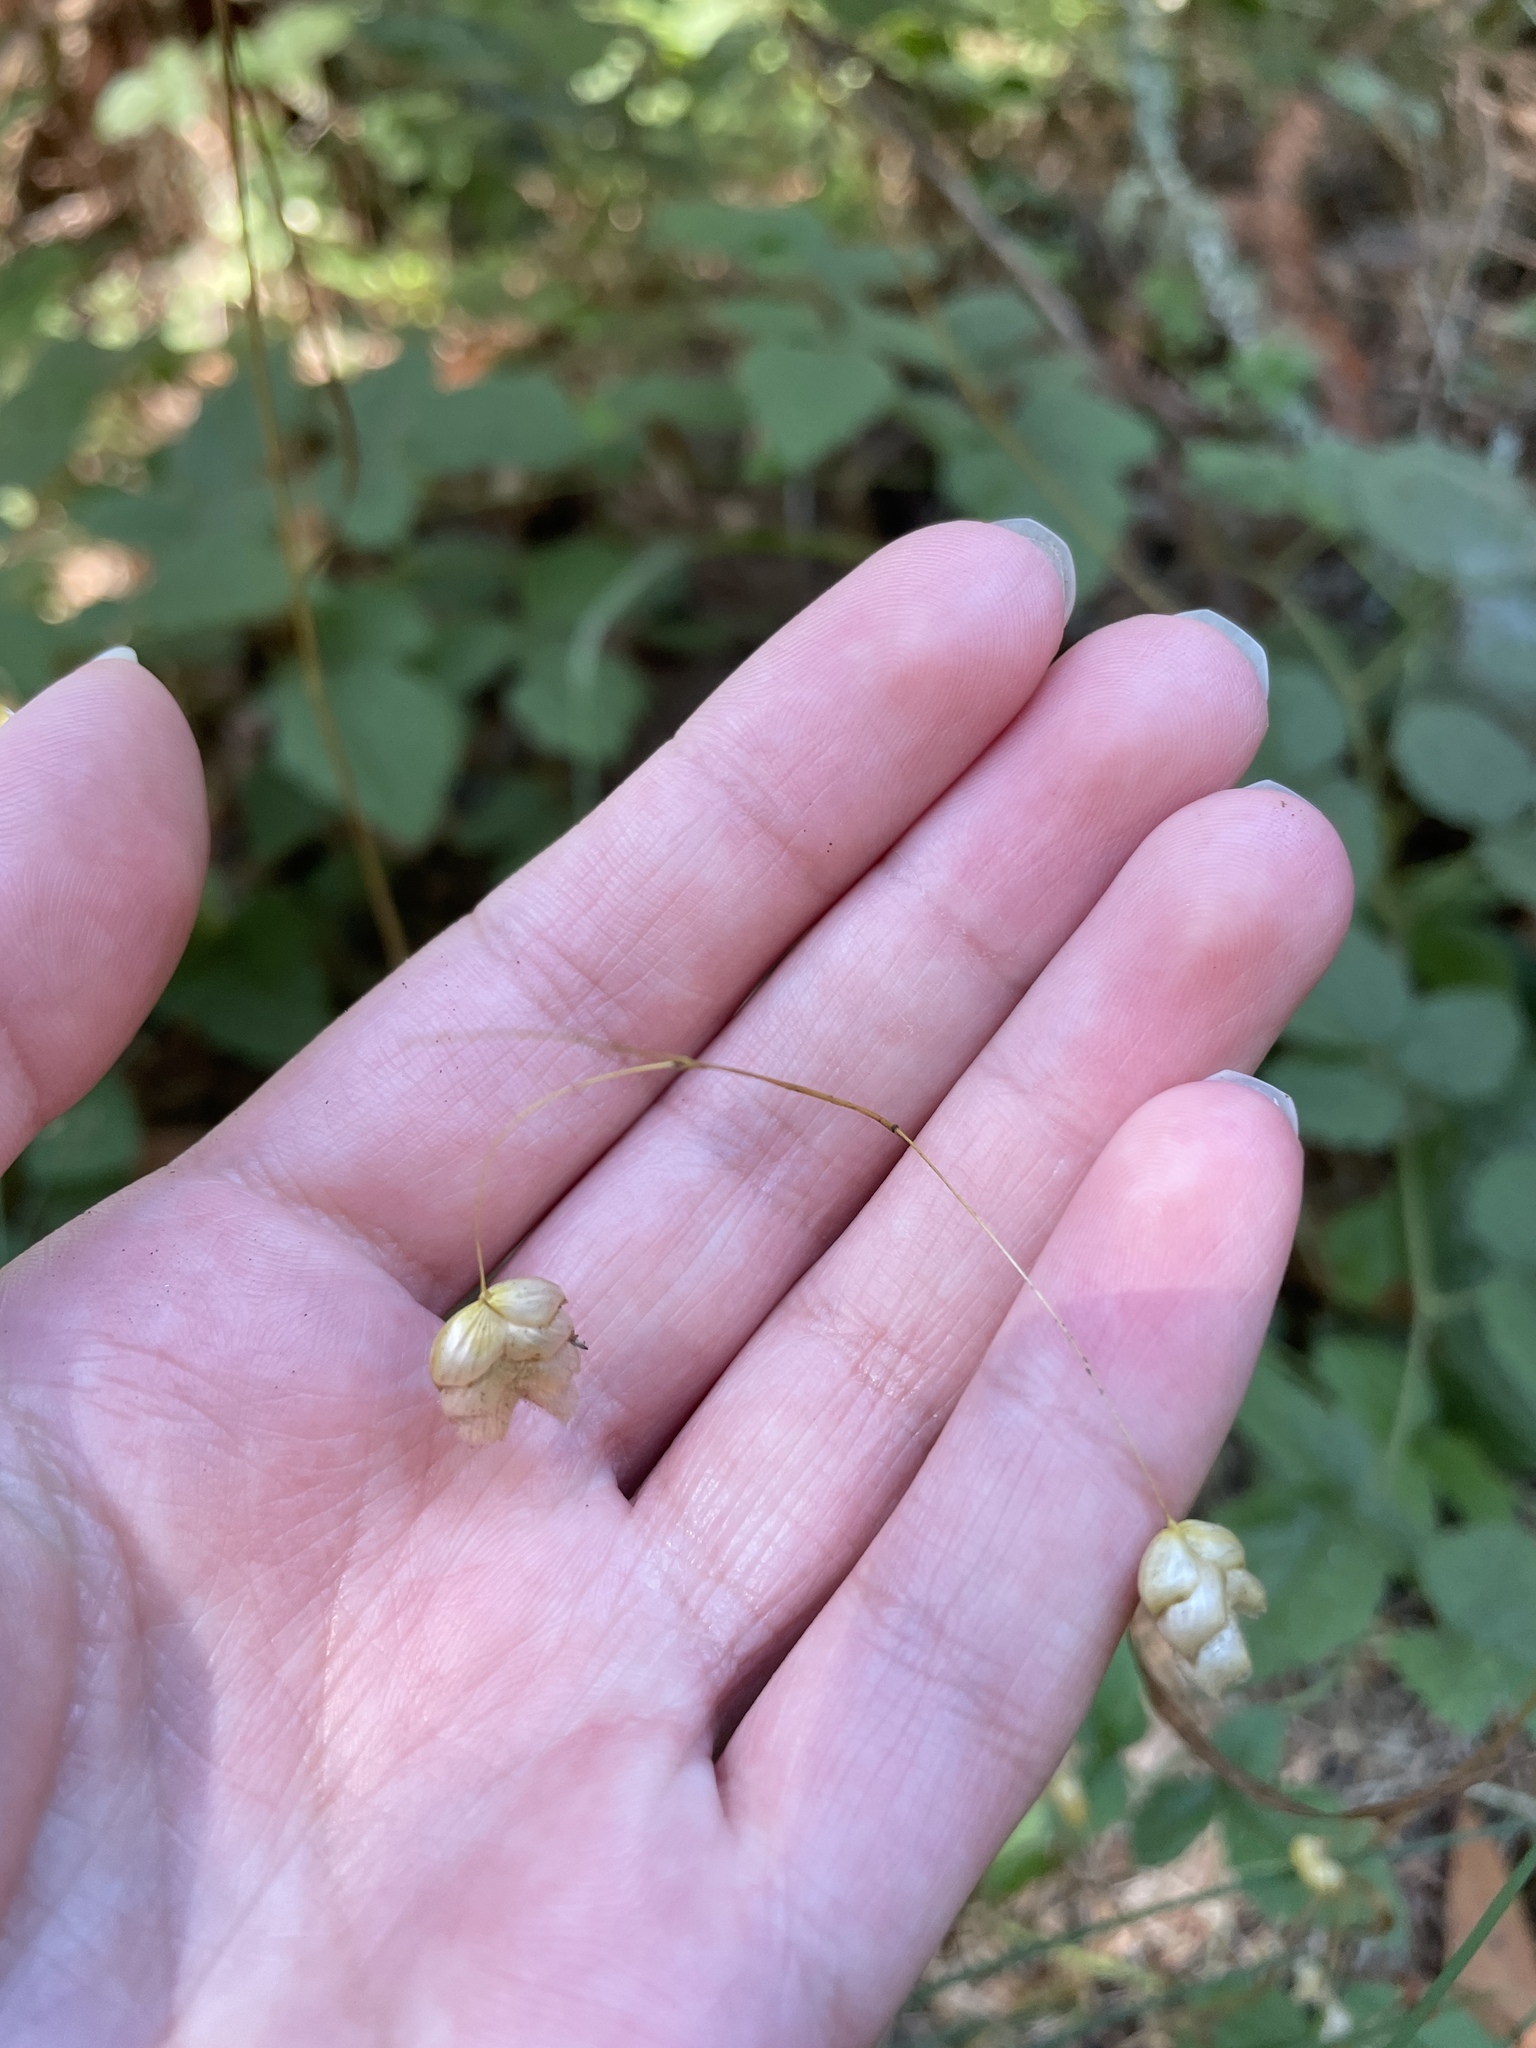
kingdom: Plantae
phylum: Tracheophyta
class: Liliopsida
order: Poales
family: Poaceae
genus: Briza
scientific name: Briza maxima
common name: Big quakinggrass
